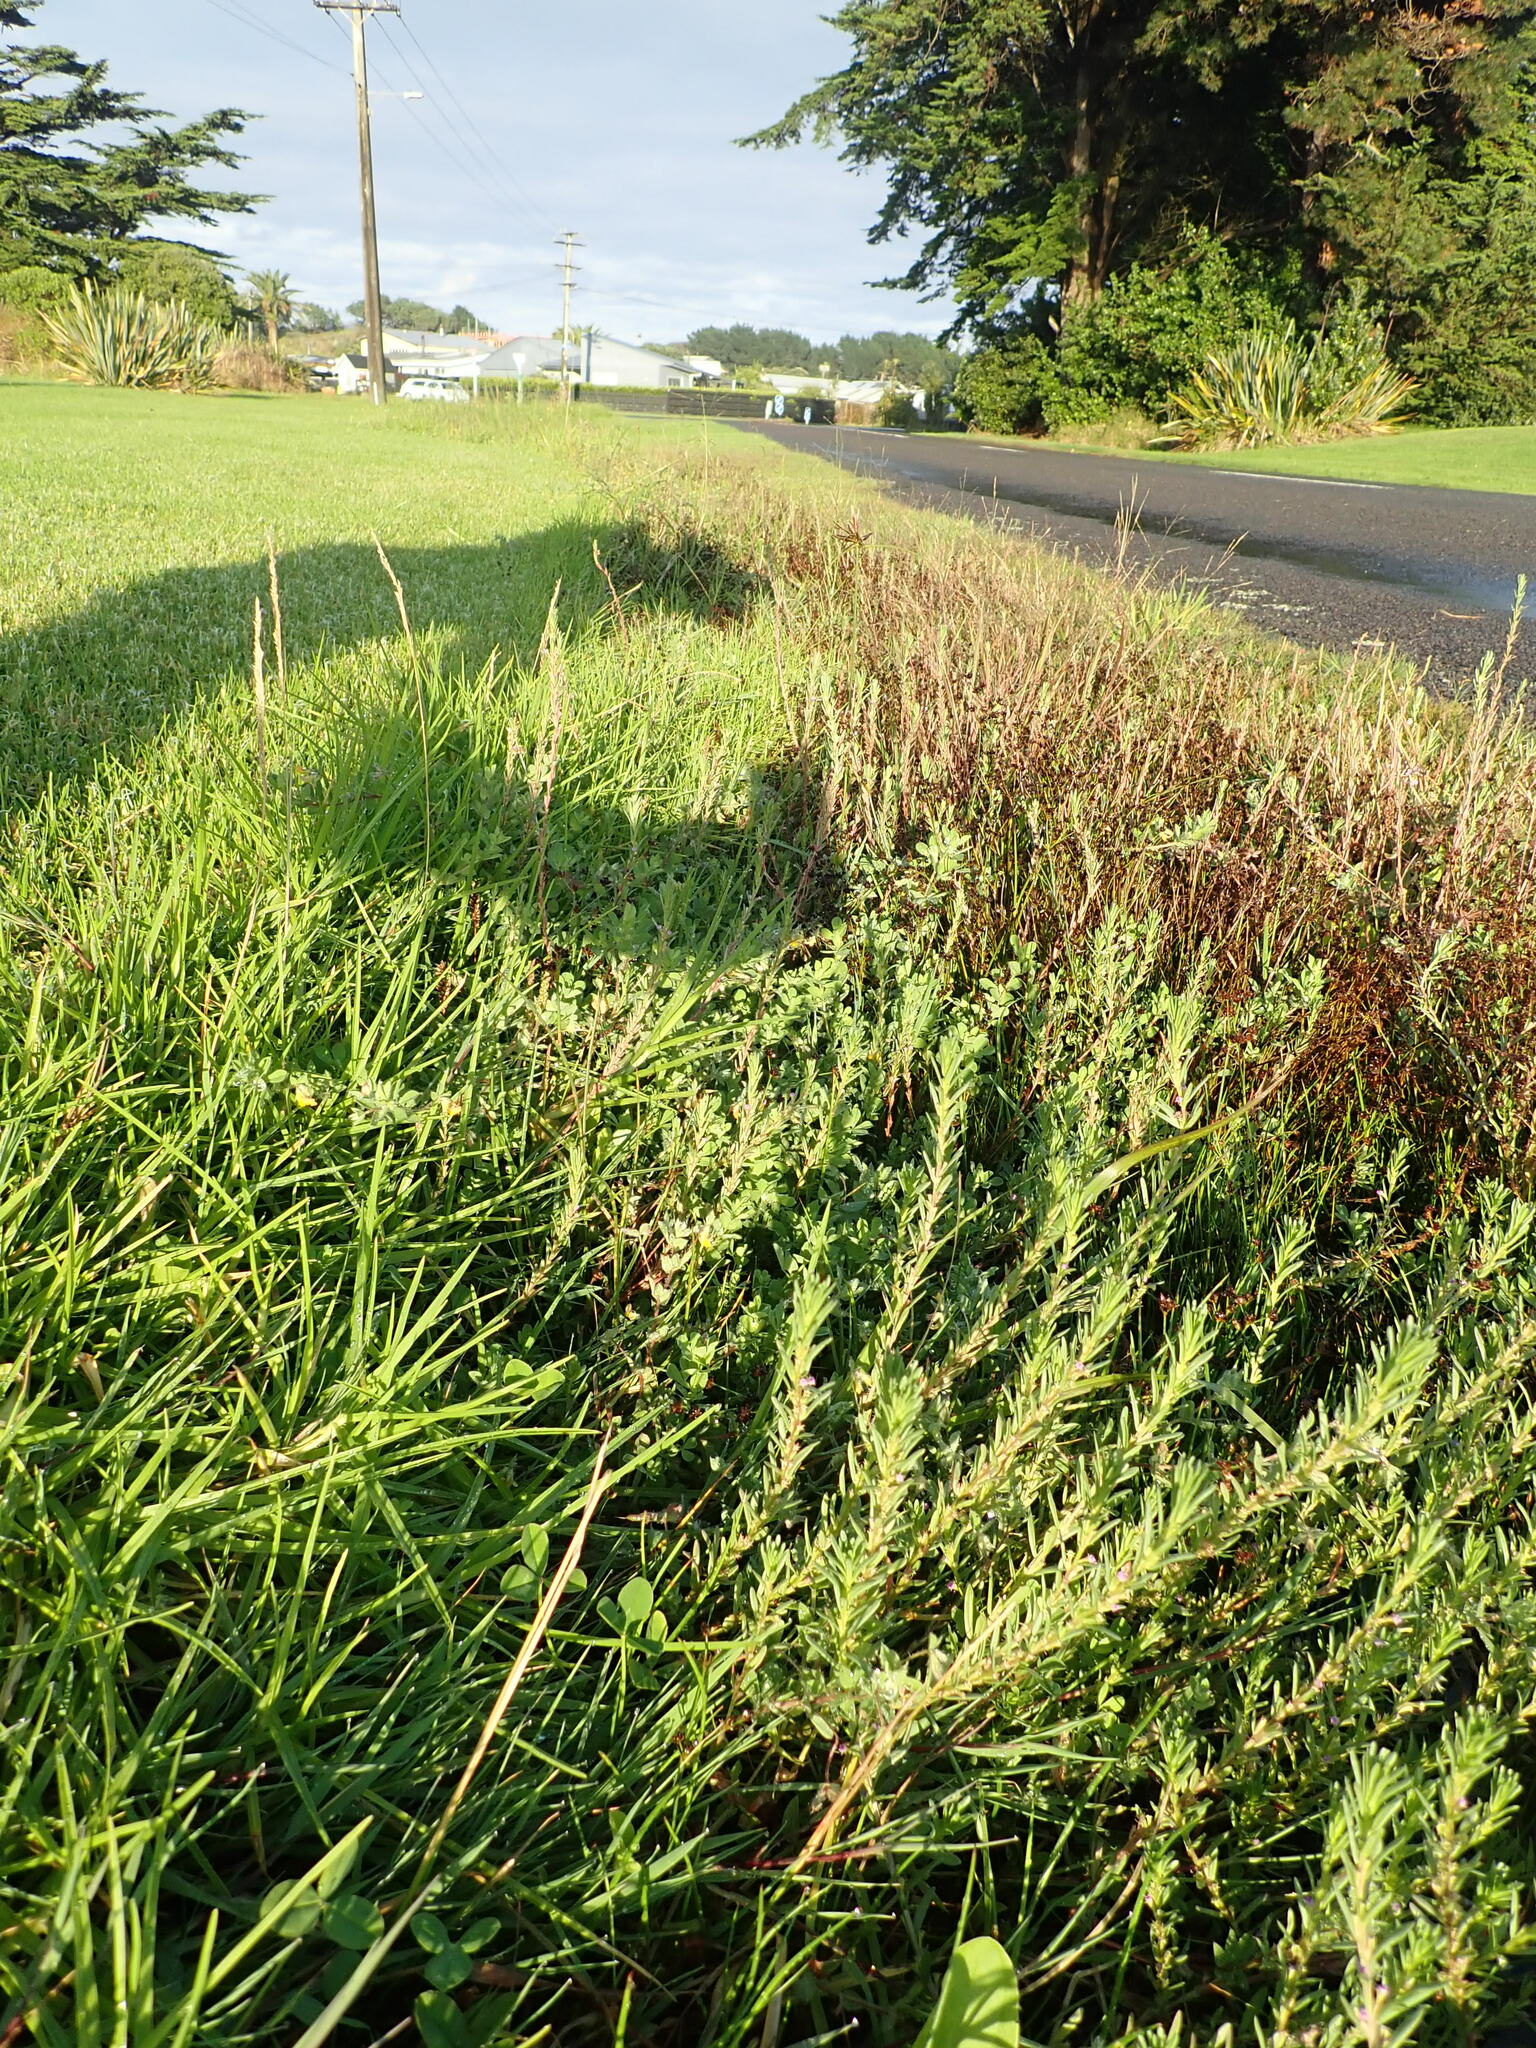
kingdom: Plantae
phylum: Tracheophyta
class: Liliopsida
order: Poales
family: Juncaceae
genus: Juncus
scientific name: Juncus articulatus
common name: Jointed rush
